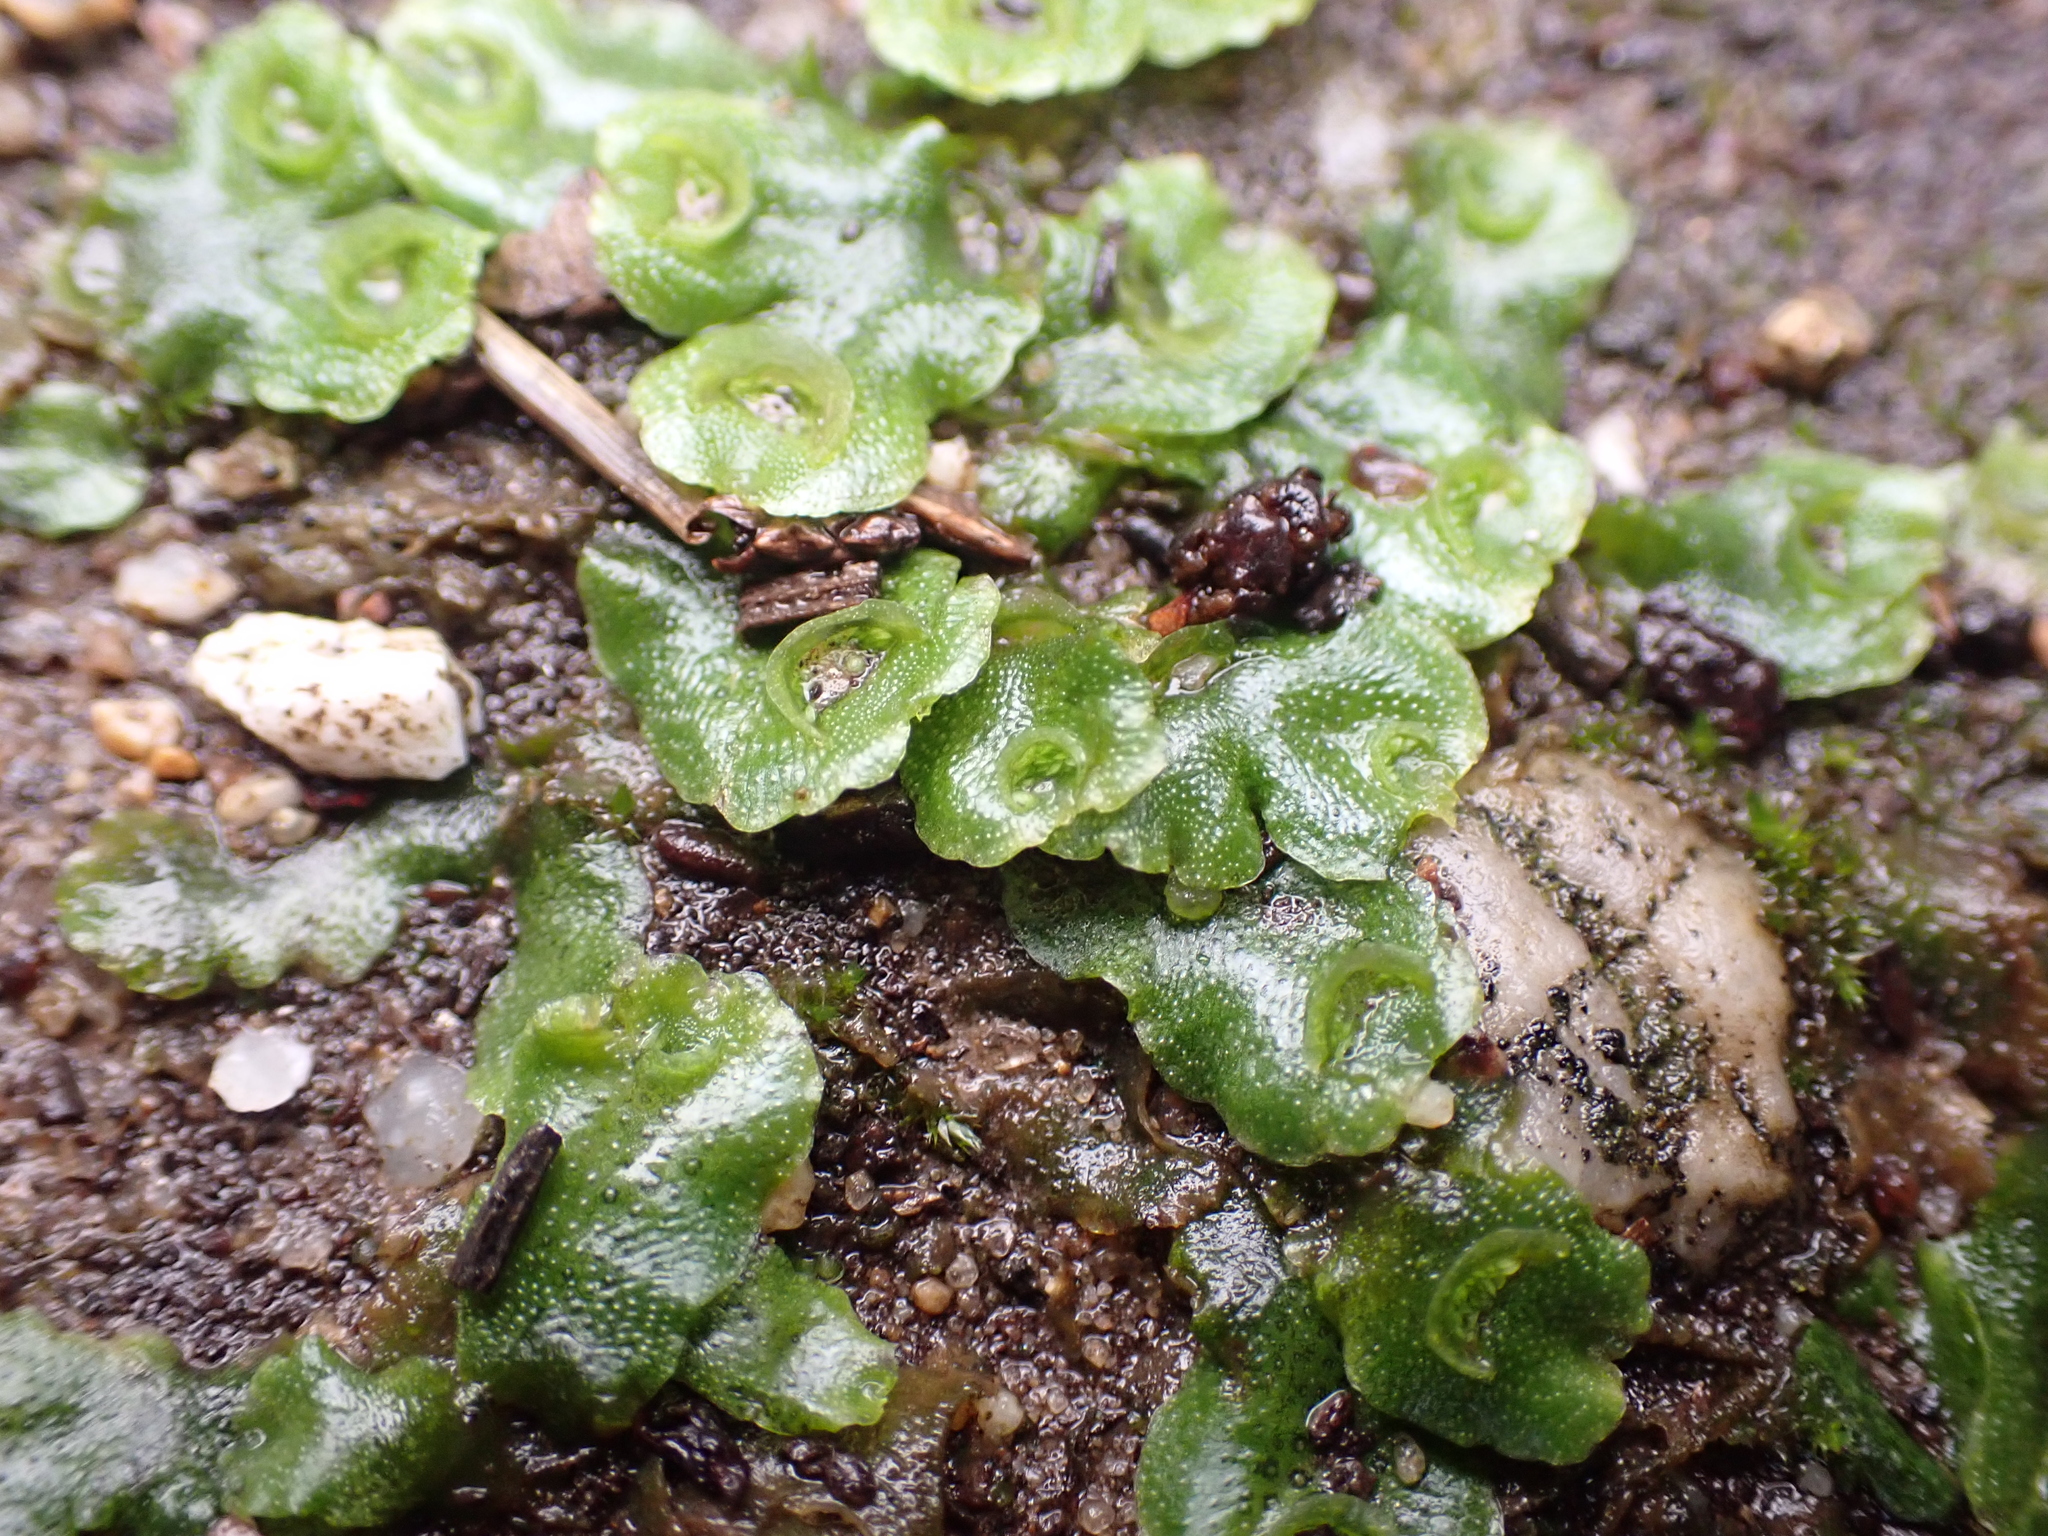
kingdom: Plantae
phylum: Marchantiophyta
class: Marchantiopsida
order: Lunulariales
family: Lunulariaceae
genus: Lunularia
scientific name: Lunularia cruciata
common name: Crescent-cup liverwort
